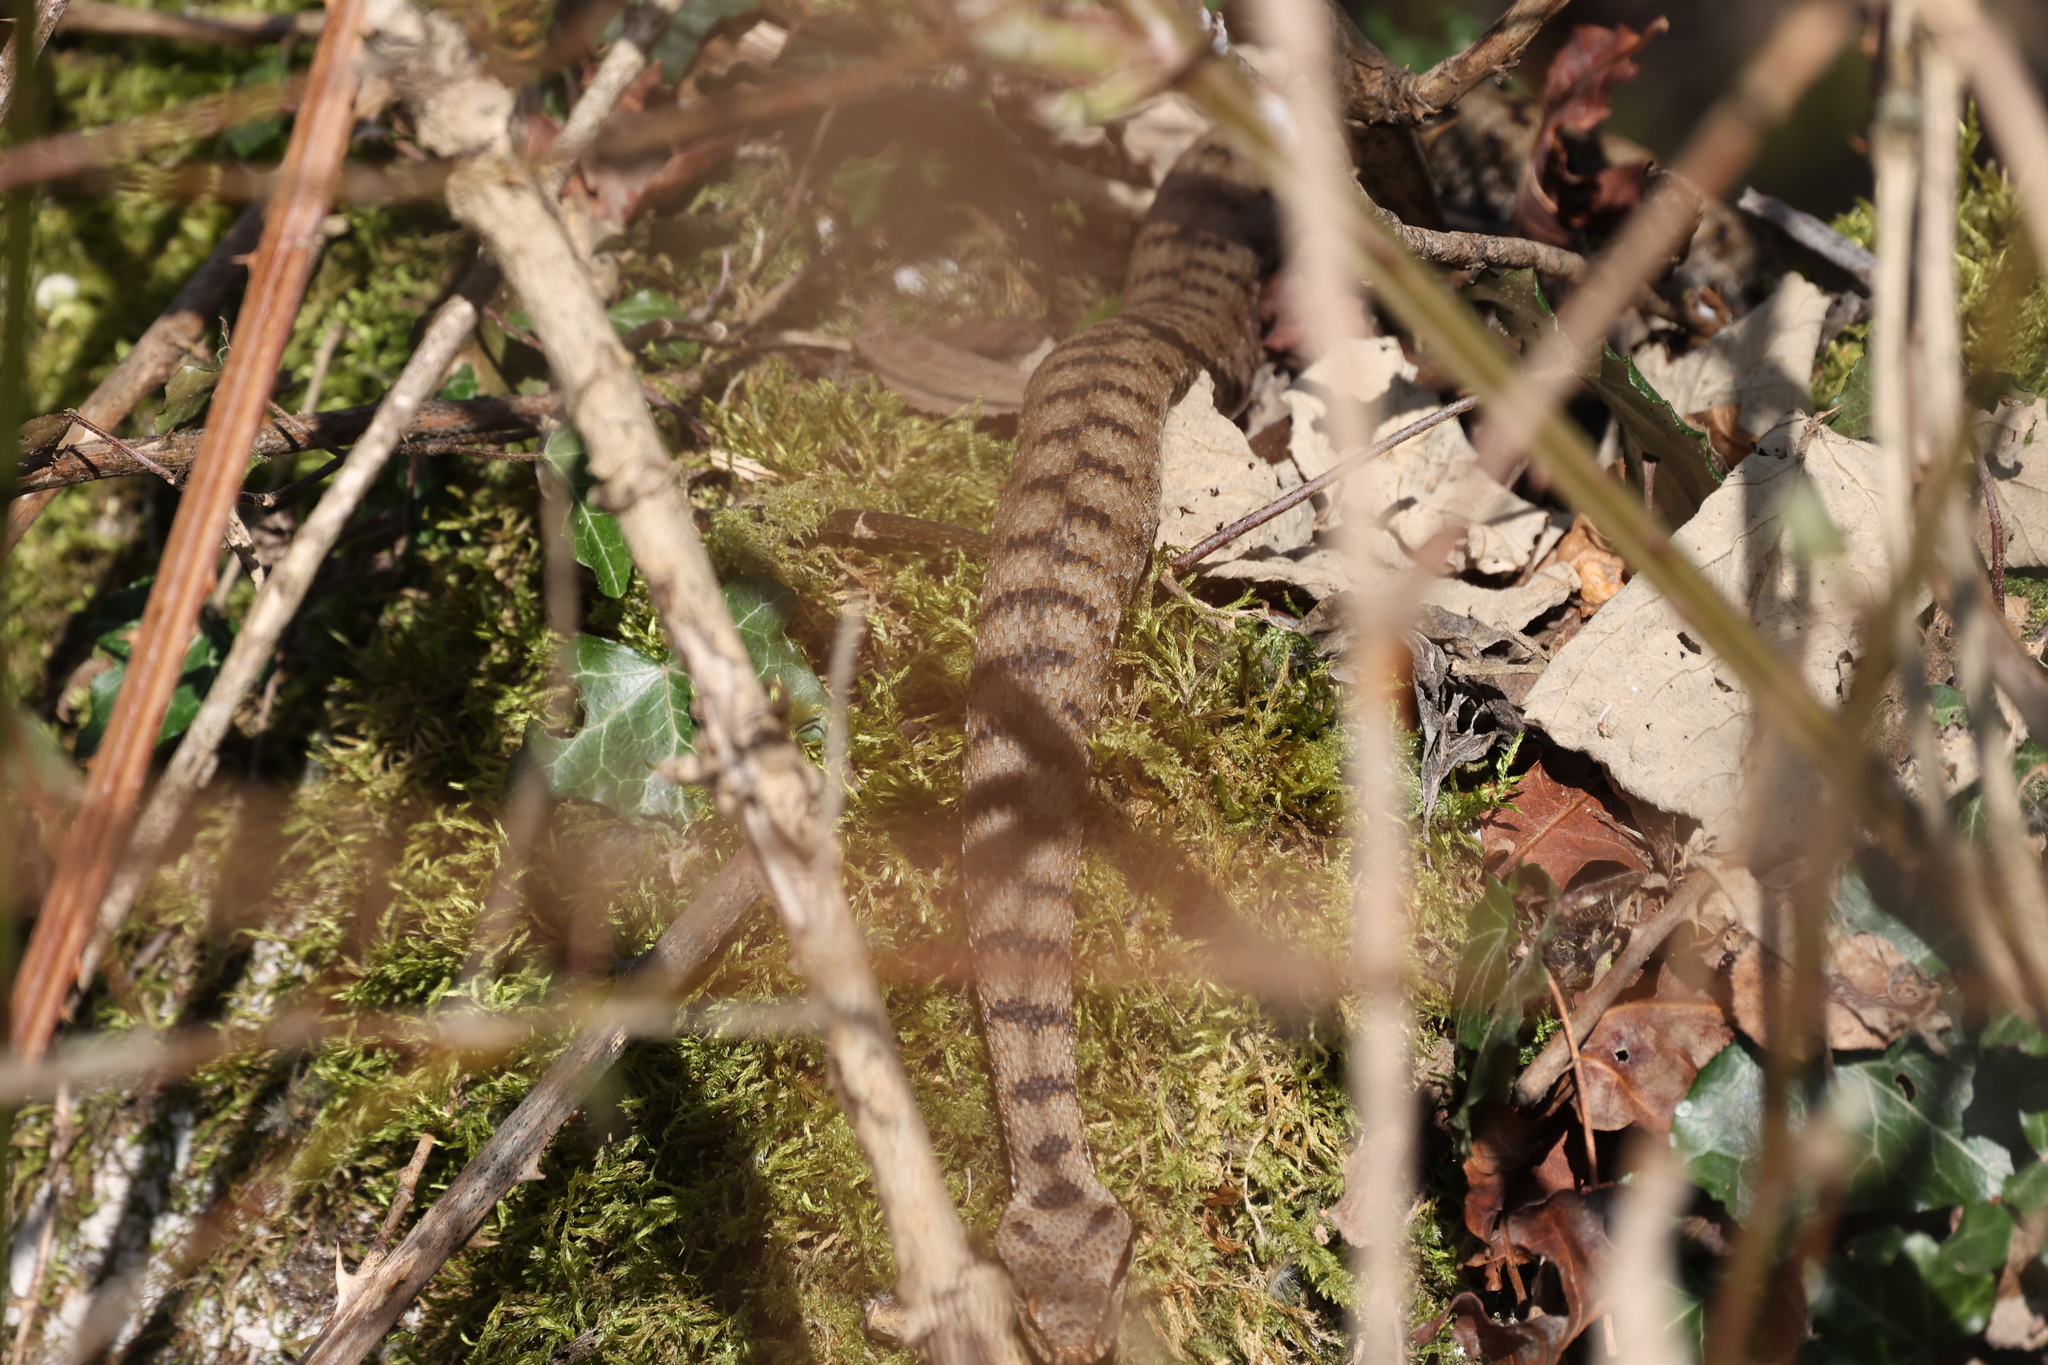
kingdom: Animalia
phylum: Chordata
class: Squamata
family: Viperidae
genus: Vipera
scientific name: Vipera aspis
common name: Asp viper
